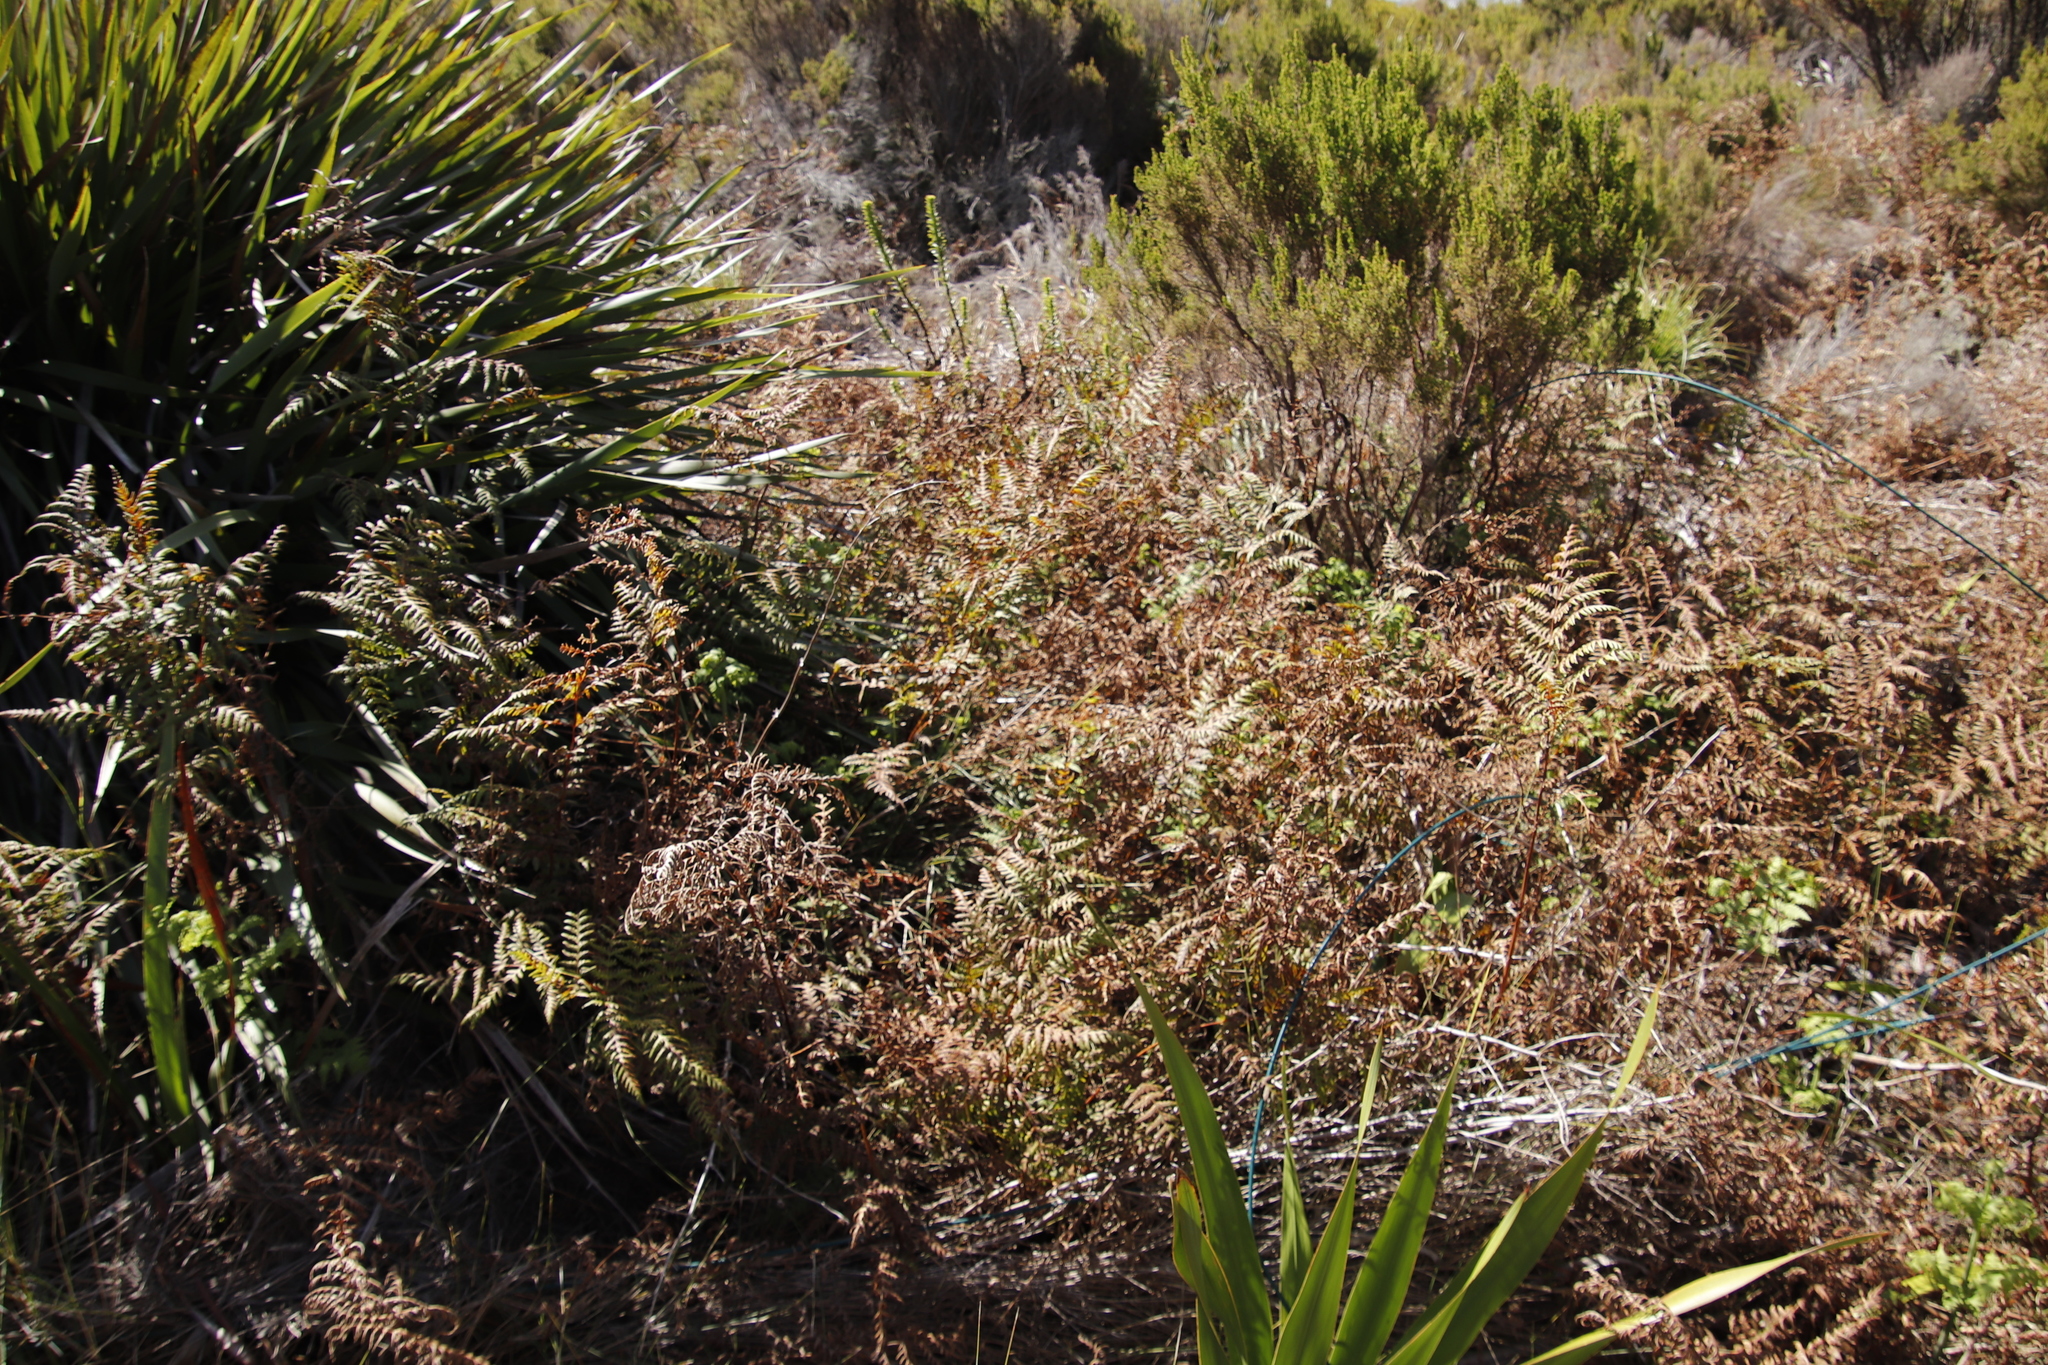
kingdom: Plantae
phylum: Tracheophyta
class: Polypodiopsida
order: Polypodiales
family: Dennstaedtiaceae
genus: Pteridium
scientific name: Pteridium aquilinum
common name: Bracken
